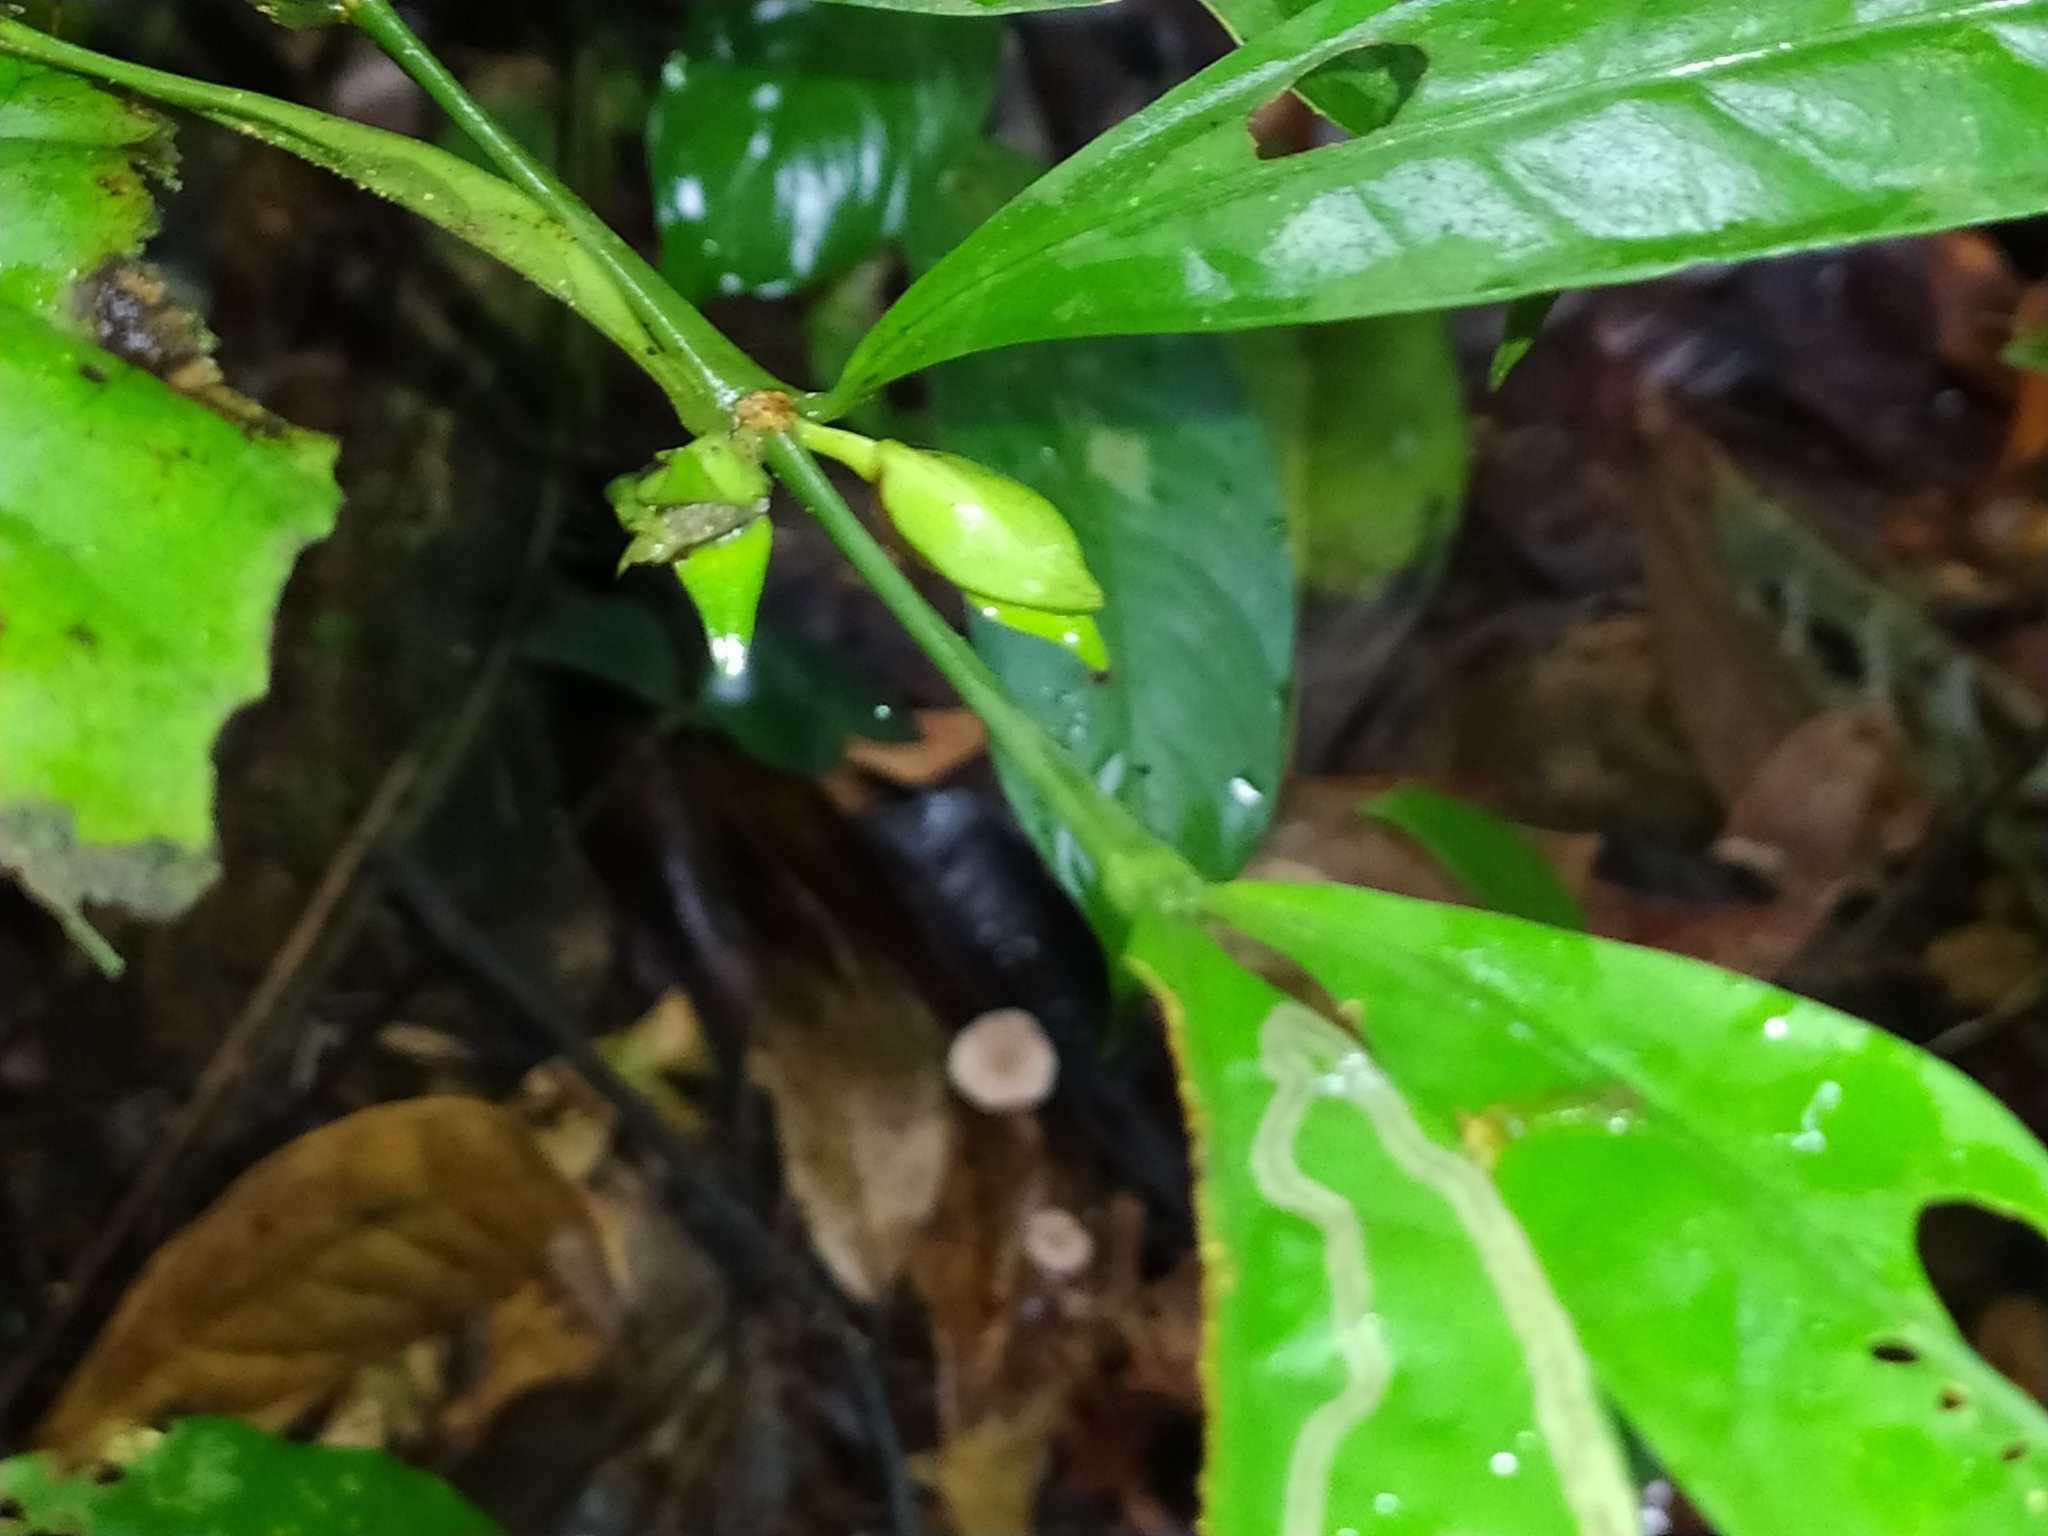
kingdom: Plantae
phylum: Tracheophyta
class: Magnoliopsida
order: Gentianales
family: Rubiaceae
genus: Faramea
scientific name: Faramea guianensis
